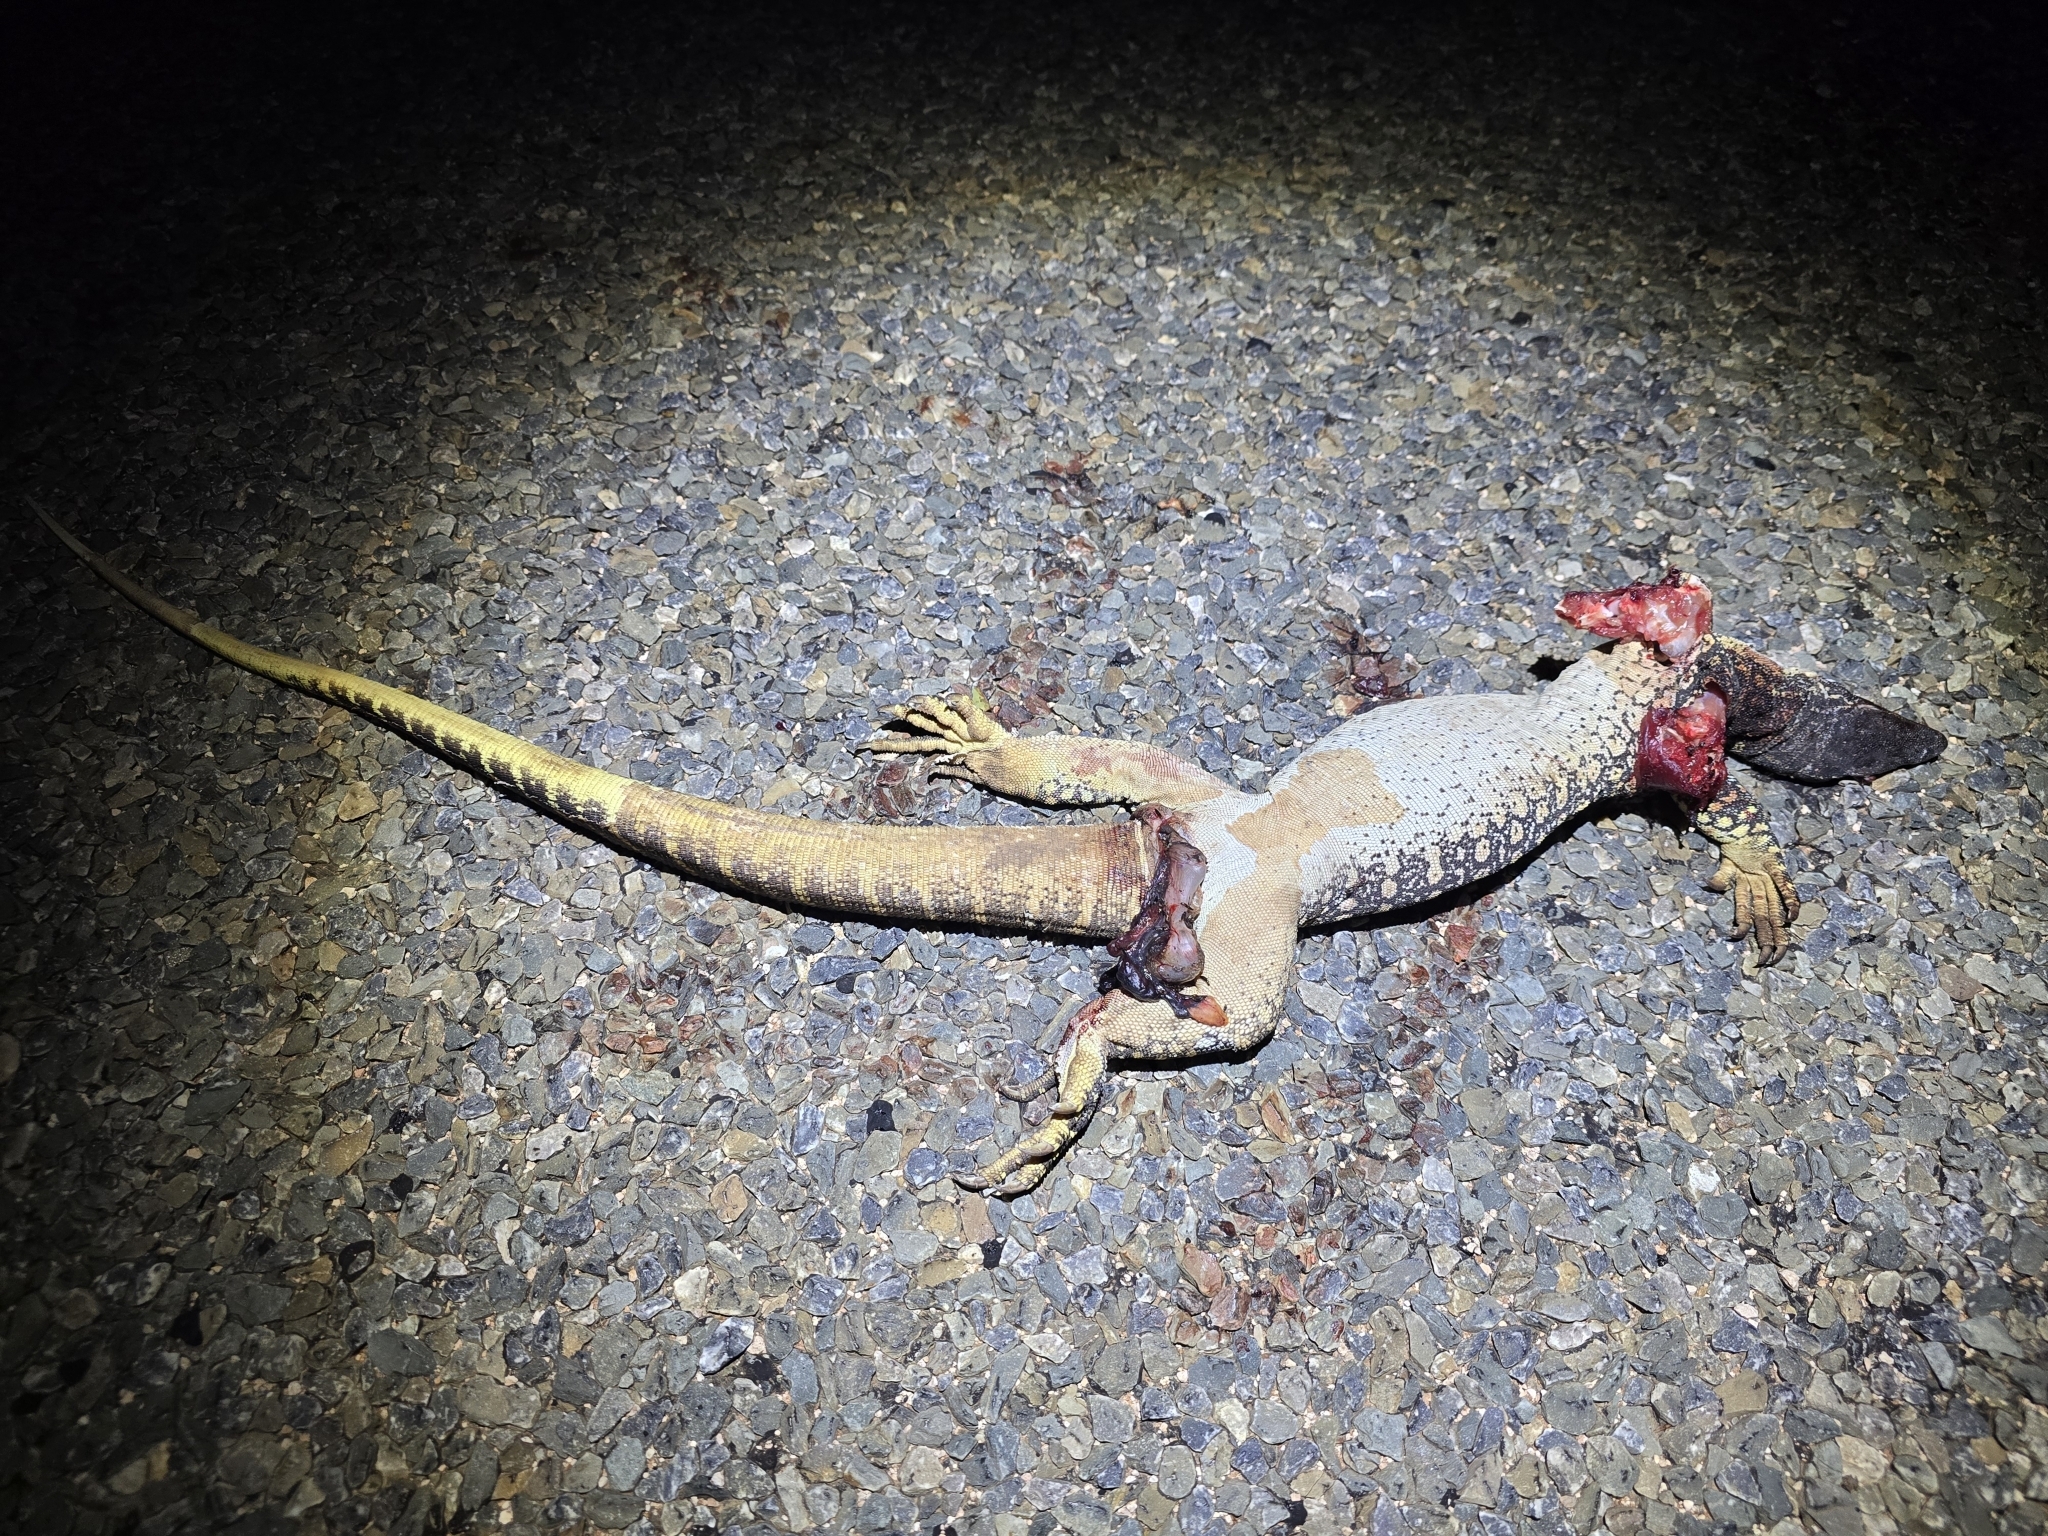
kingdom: Animalia
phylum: Chordata
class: Squamata
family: Varanidae
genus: Varanus
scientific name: Varanus gouldii
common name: Gould's goanna
